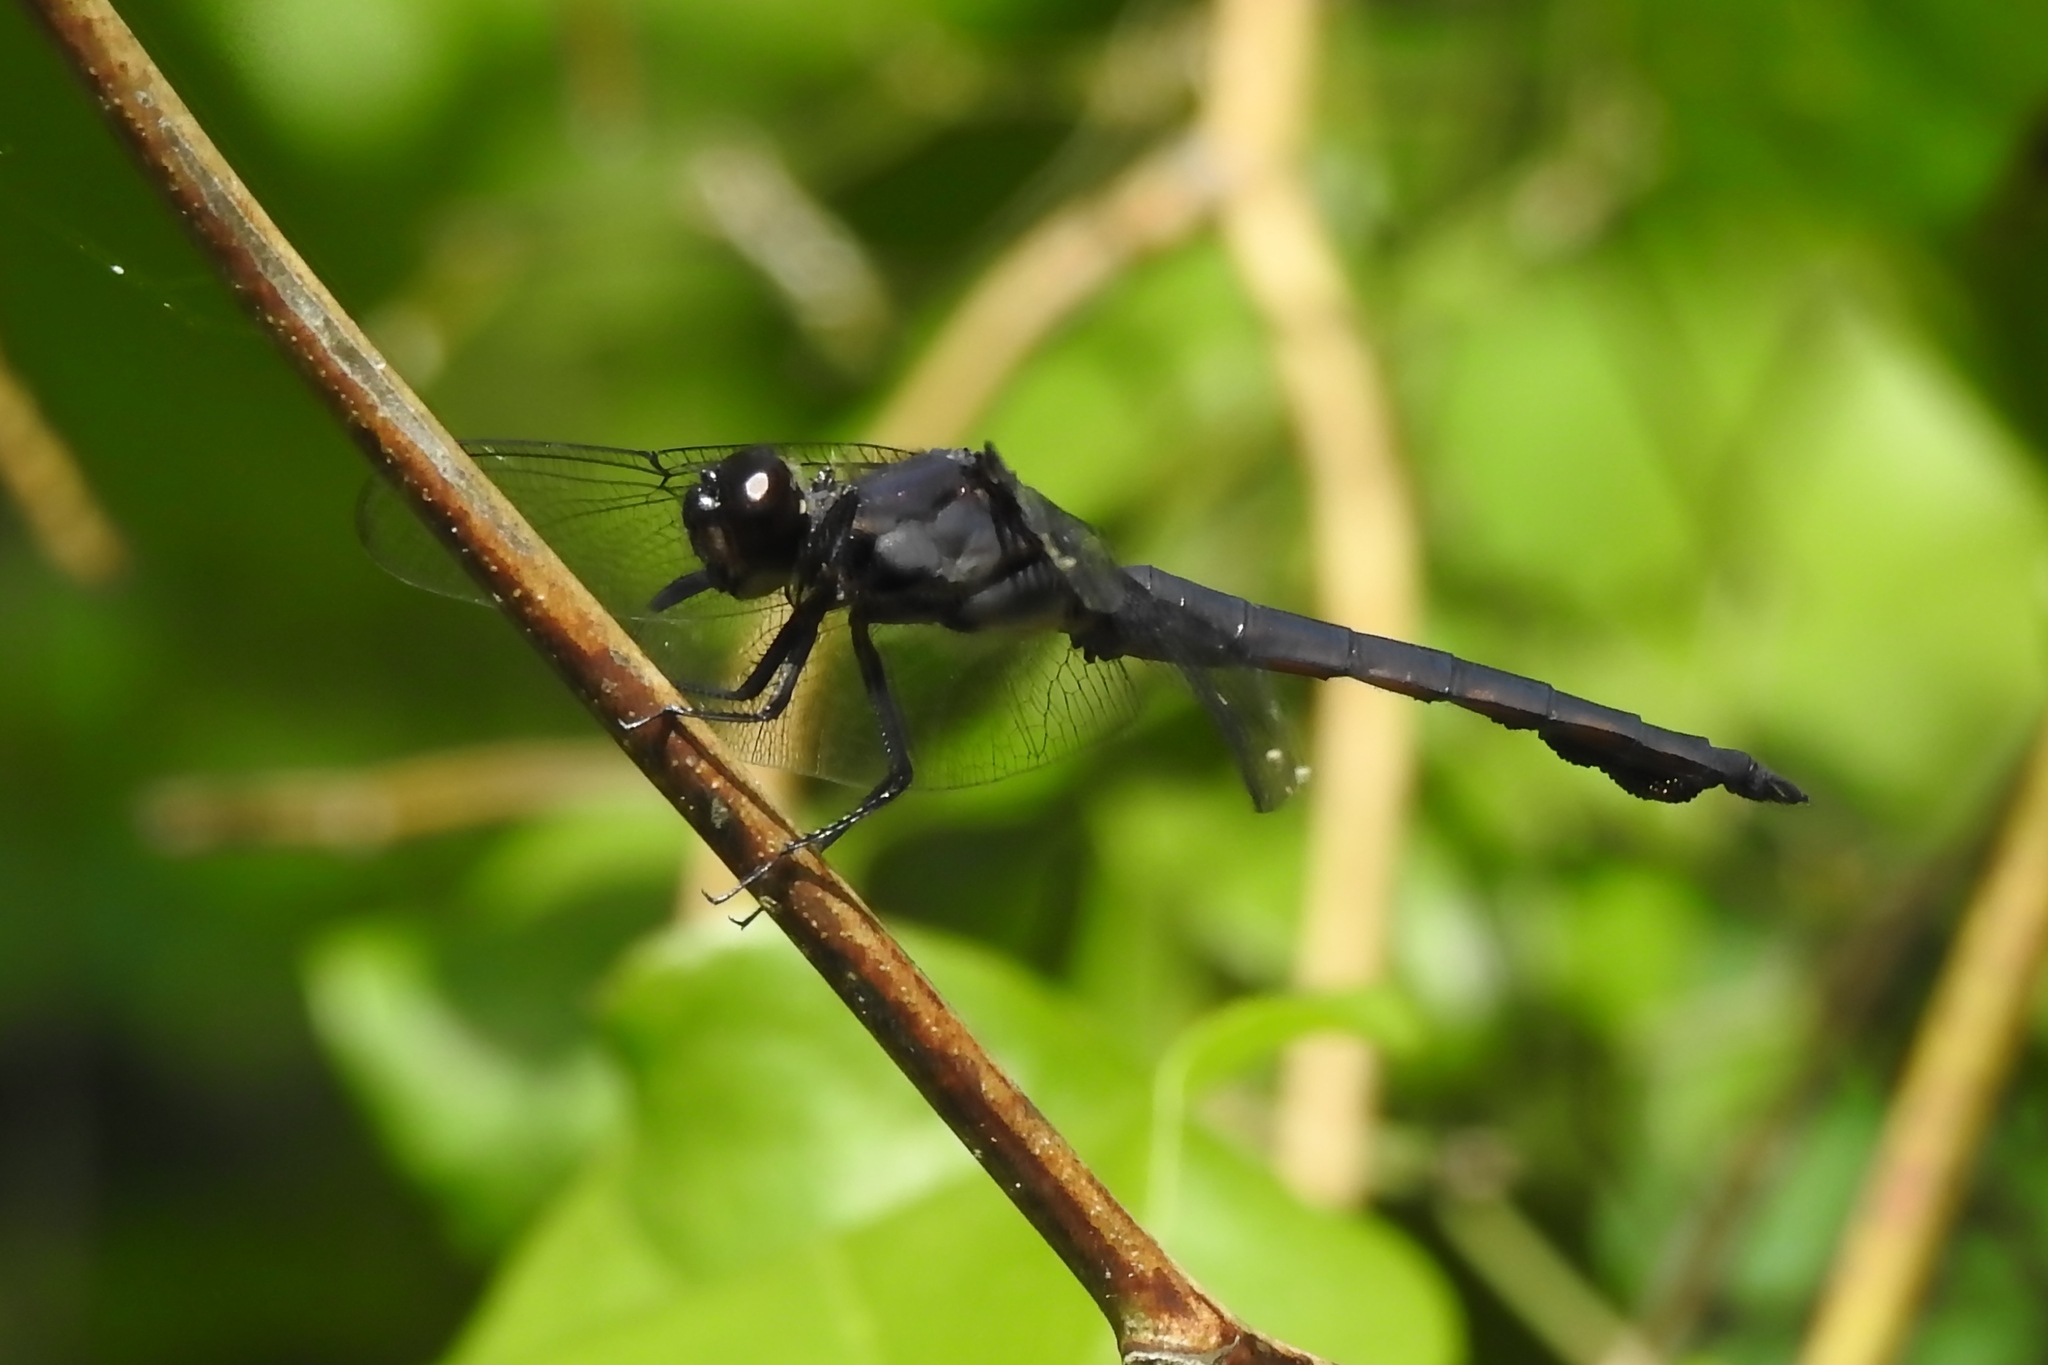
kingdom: Animalia
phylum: Arthropoda
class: Insecta
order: Odonata
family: Libellulidae
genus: Libellula
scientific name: Libellula incesta
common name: Slaty skimmer
